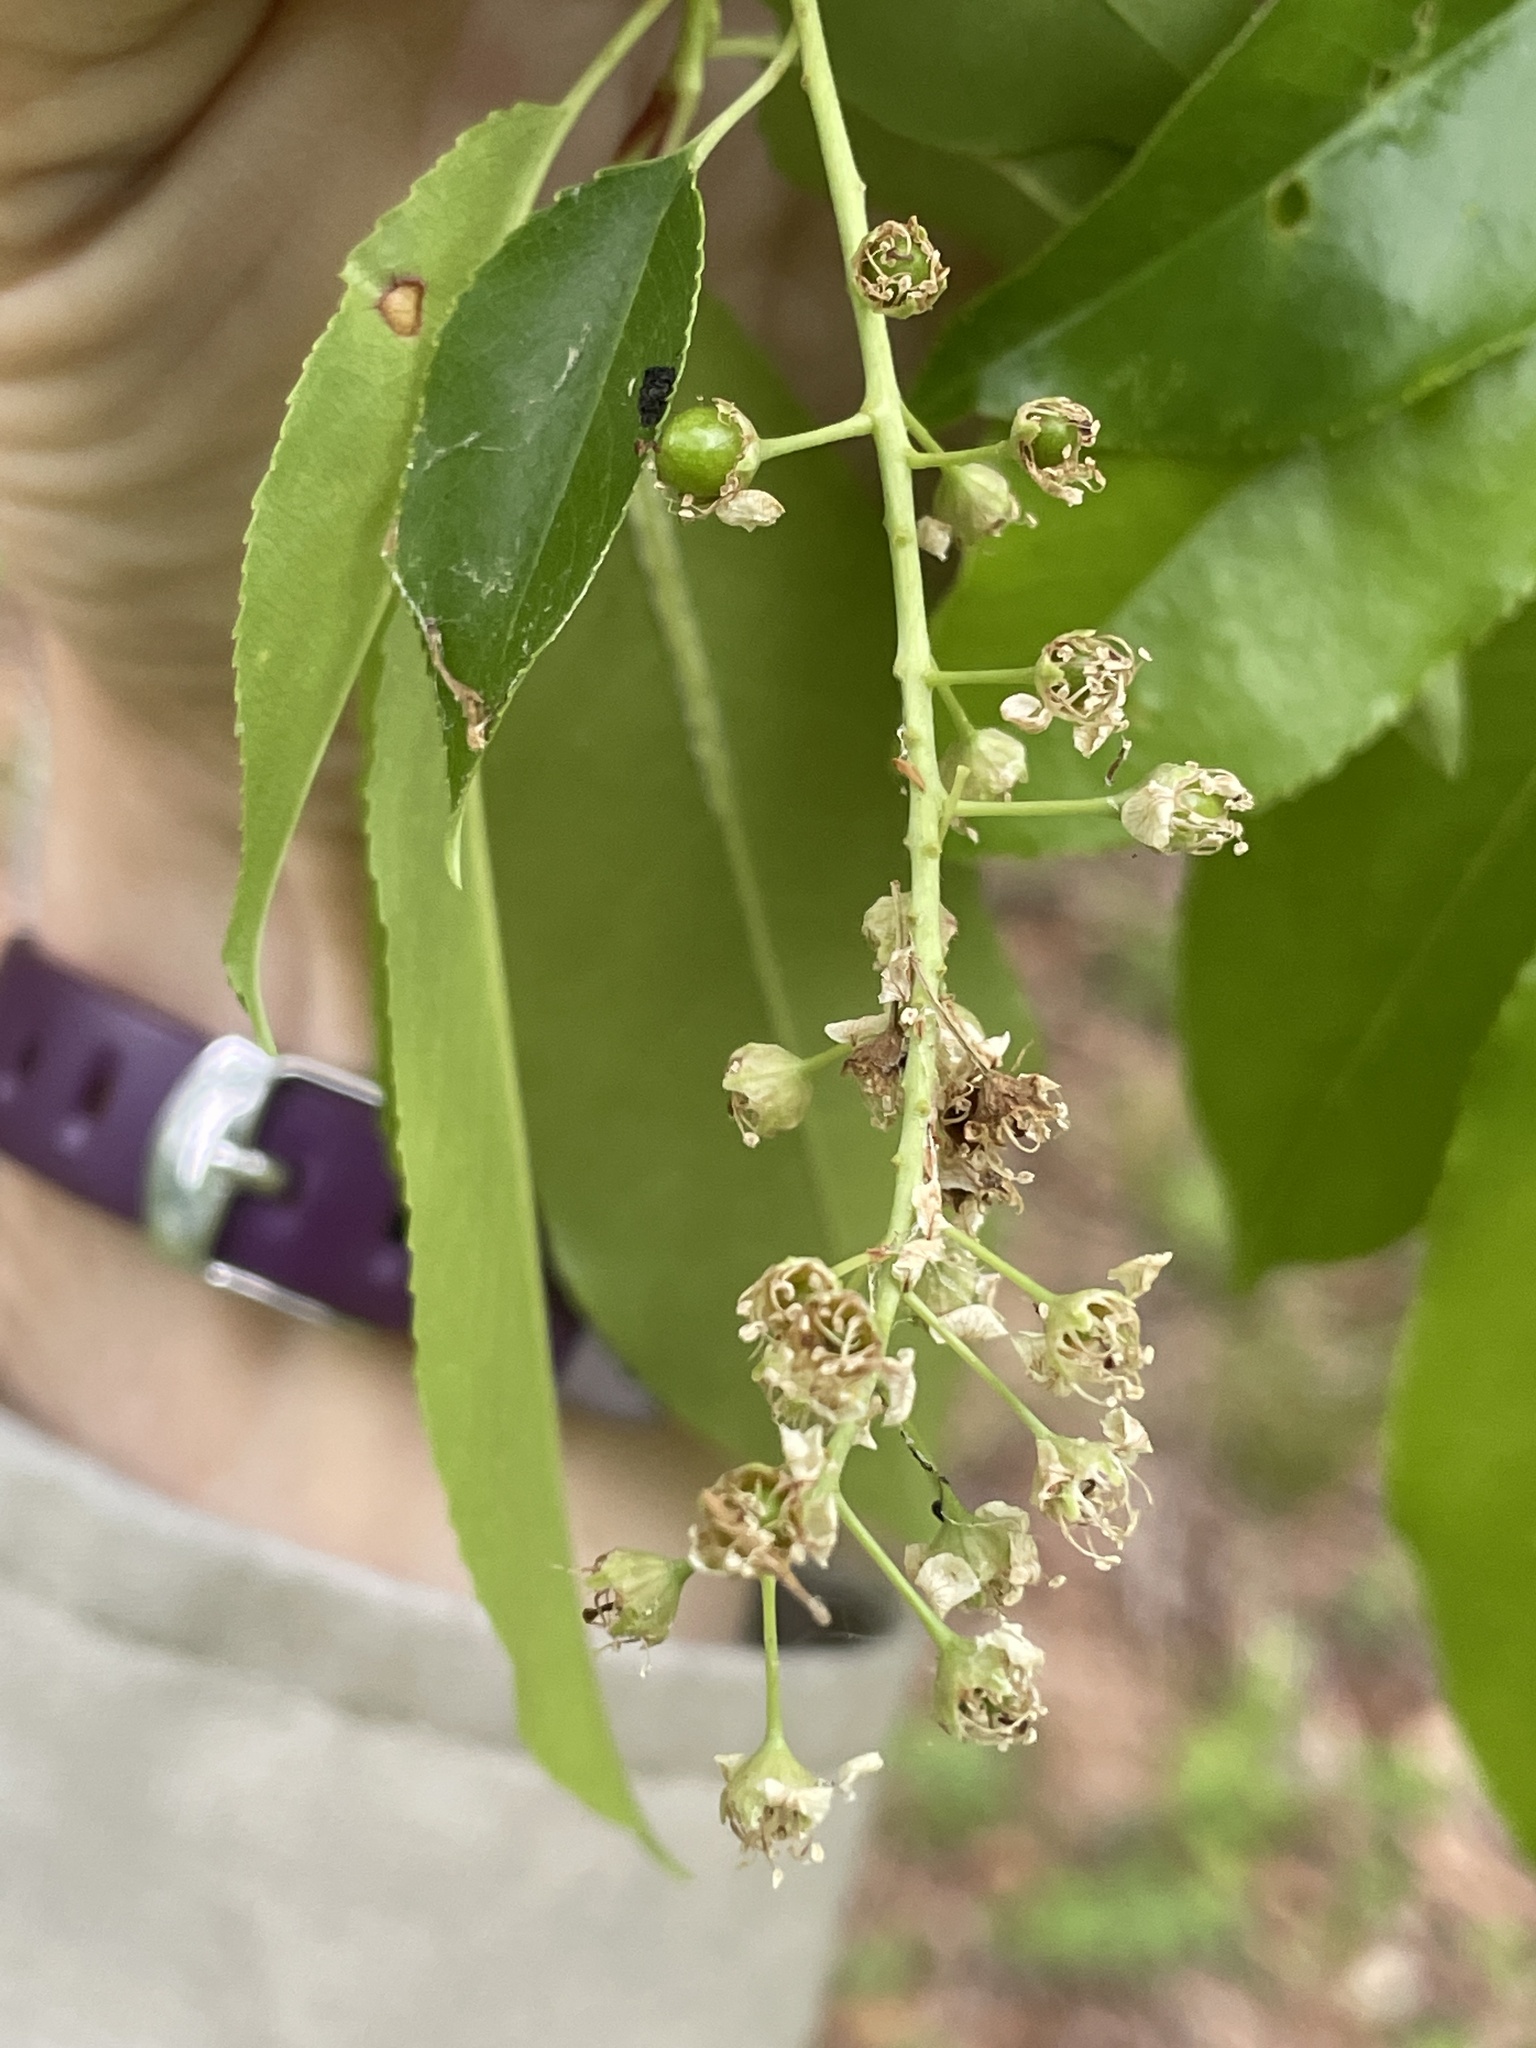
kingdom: Plantae
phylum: Tracheophyta
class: Magnoliopsida
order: Rosales
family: Rosaceae
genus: Prunus
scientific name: Prunus serotina
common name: Black cherry
